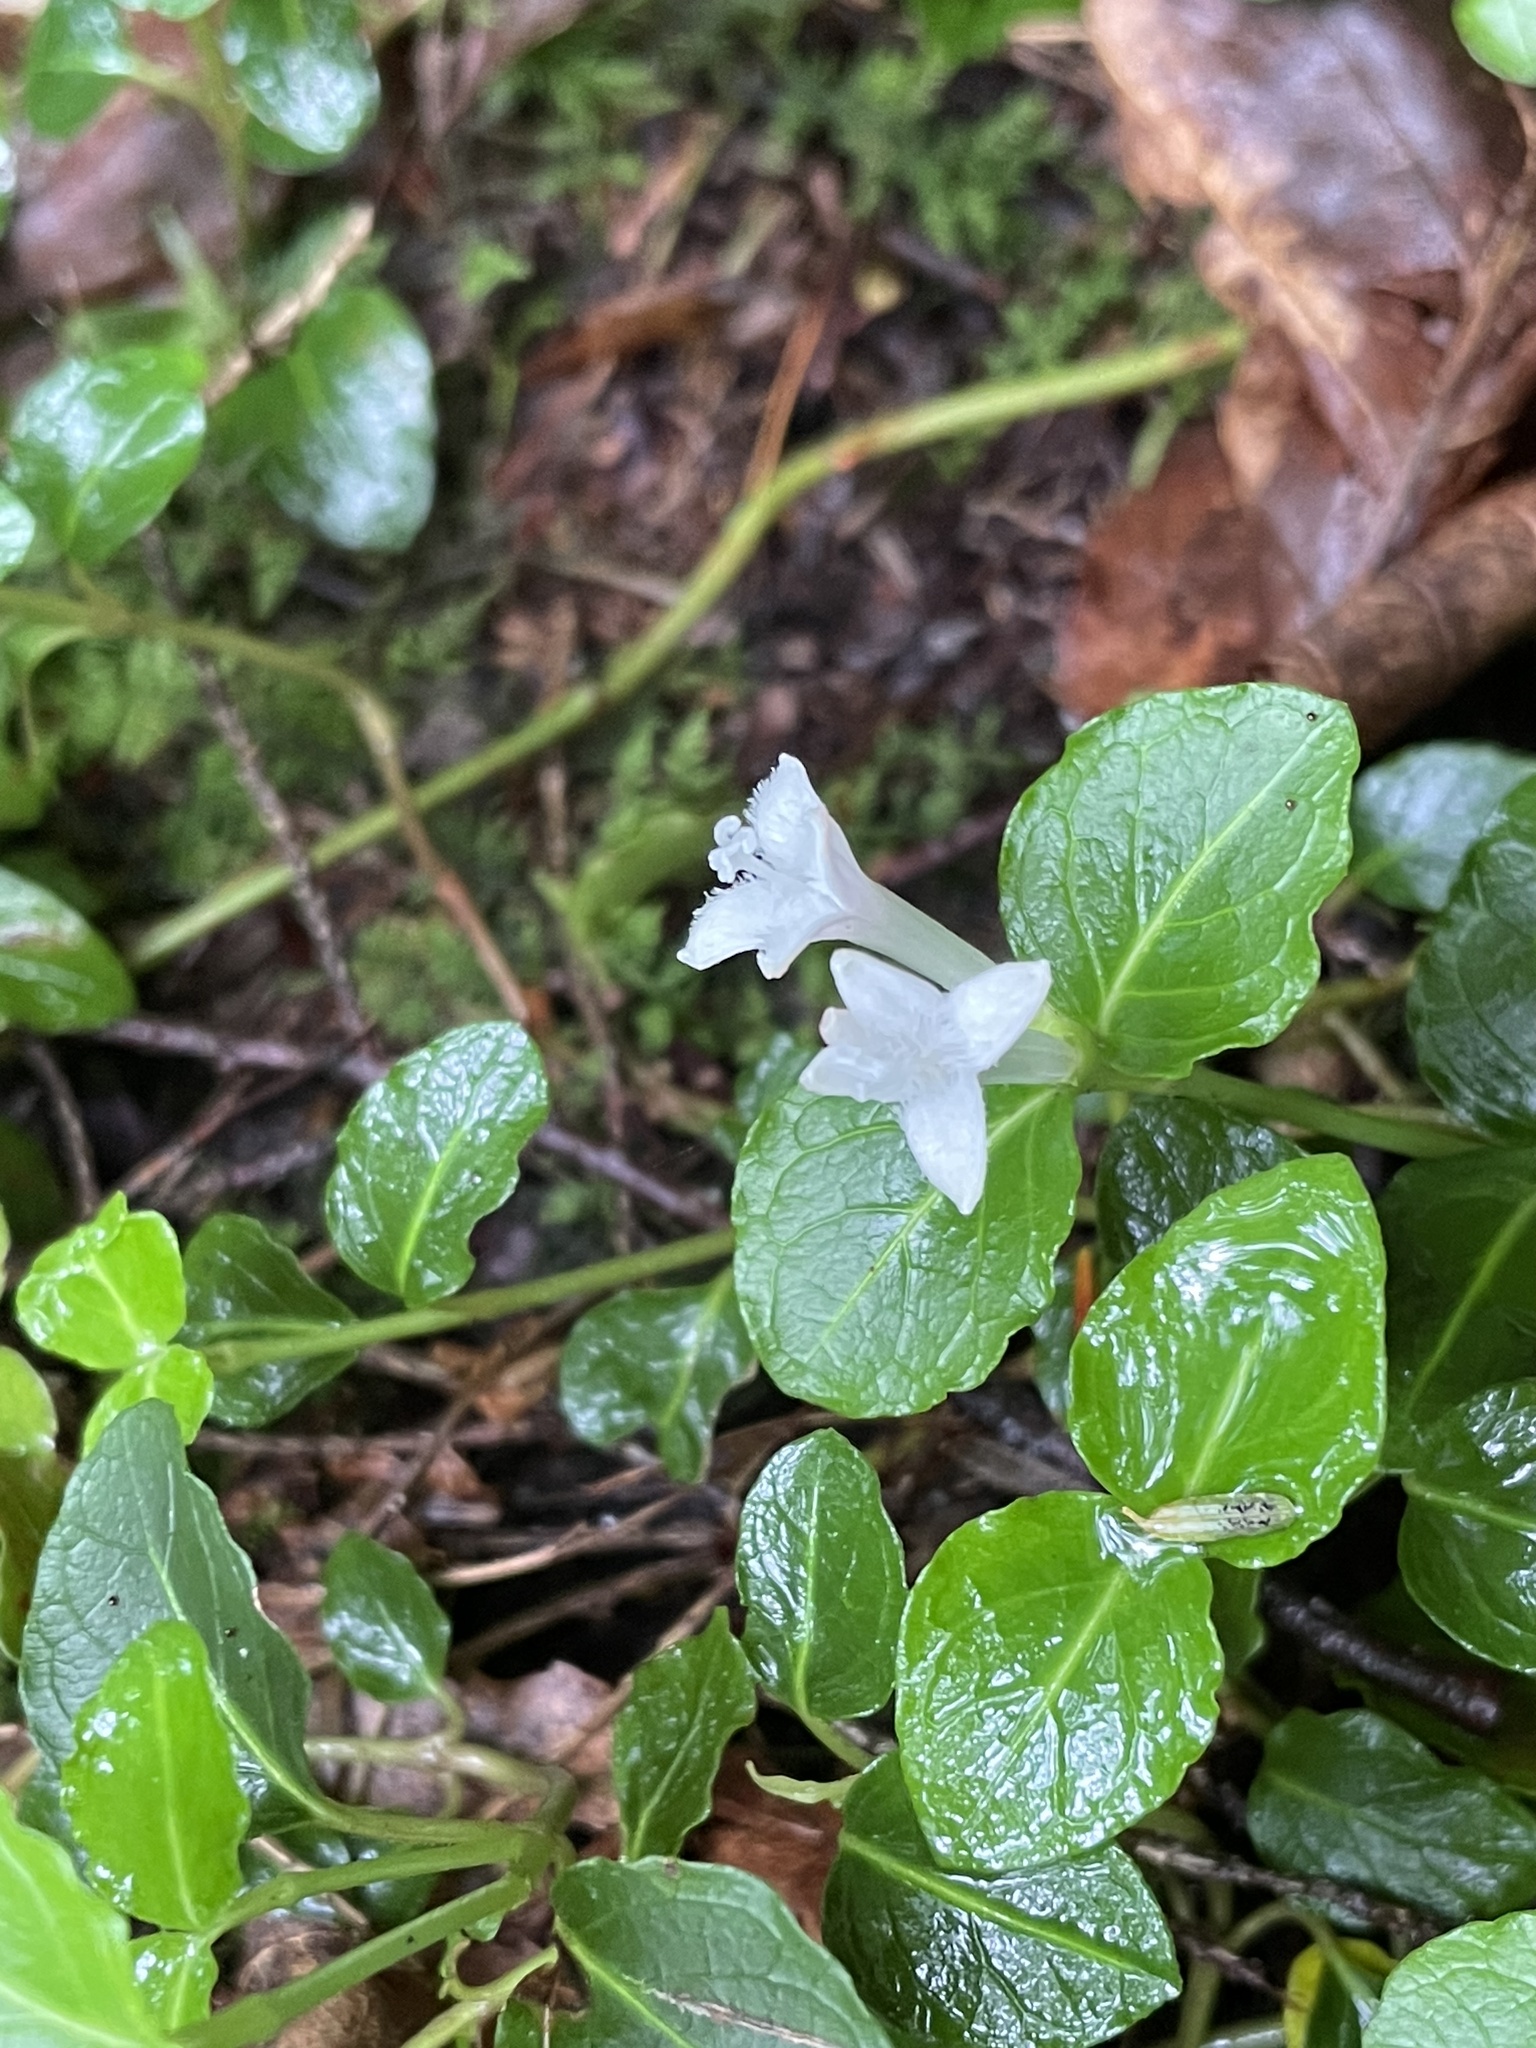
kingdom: Plantae
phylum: Tracheophyta
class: Magnoliopsida
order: Gentianales
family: Rubiaceae
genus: Mitchella
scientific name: Mitchella repens
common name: Partridge-berry
